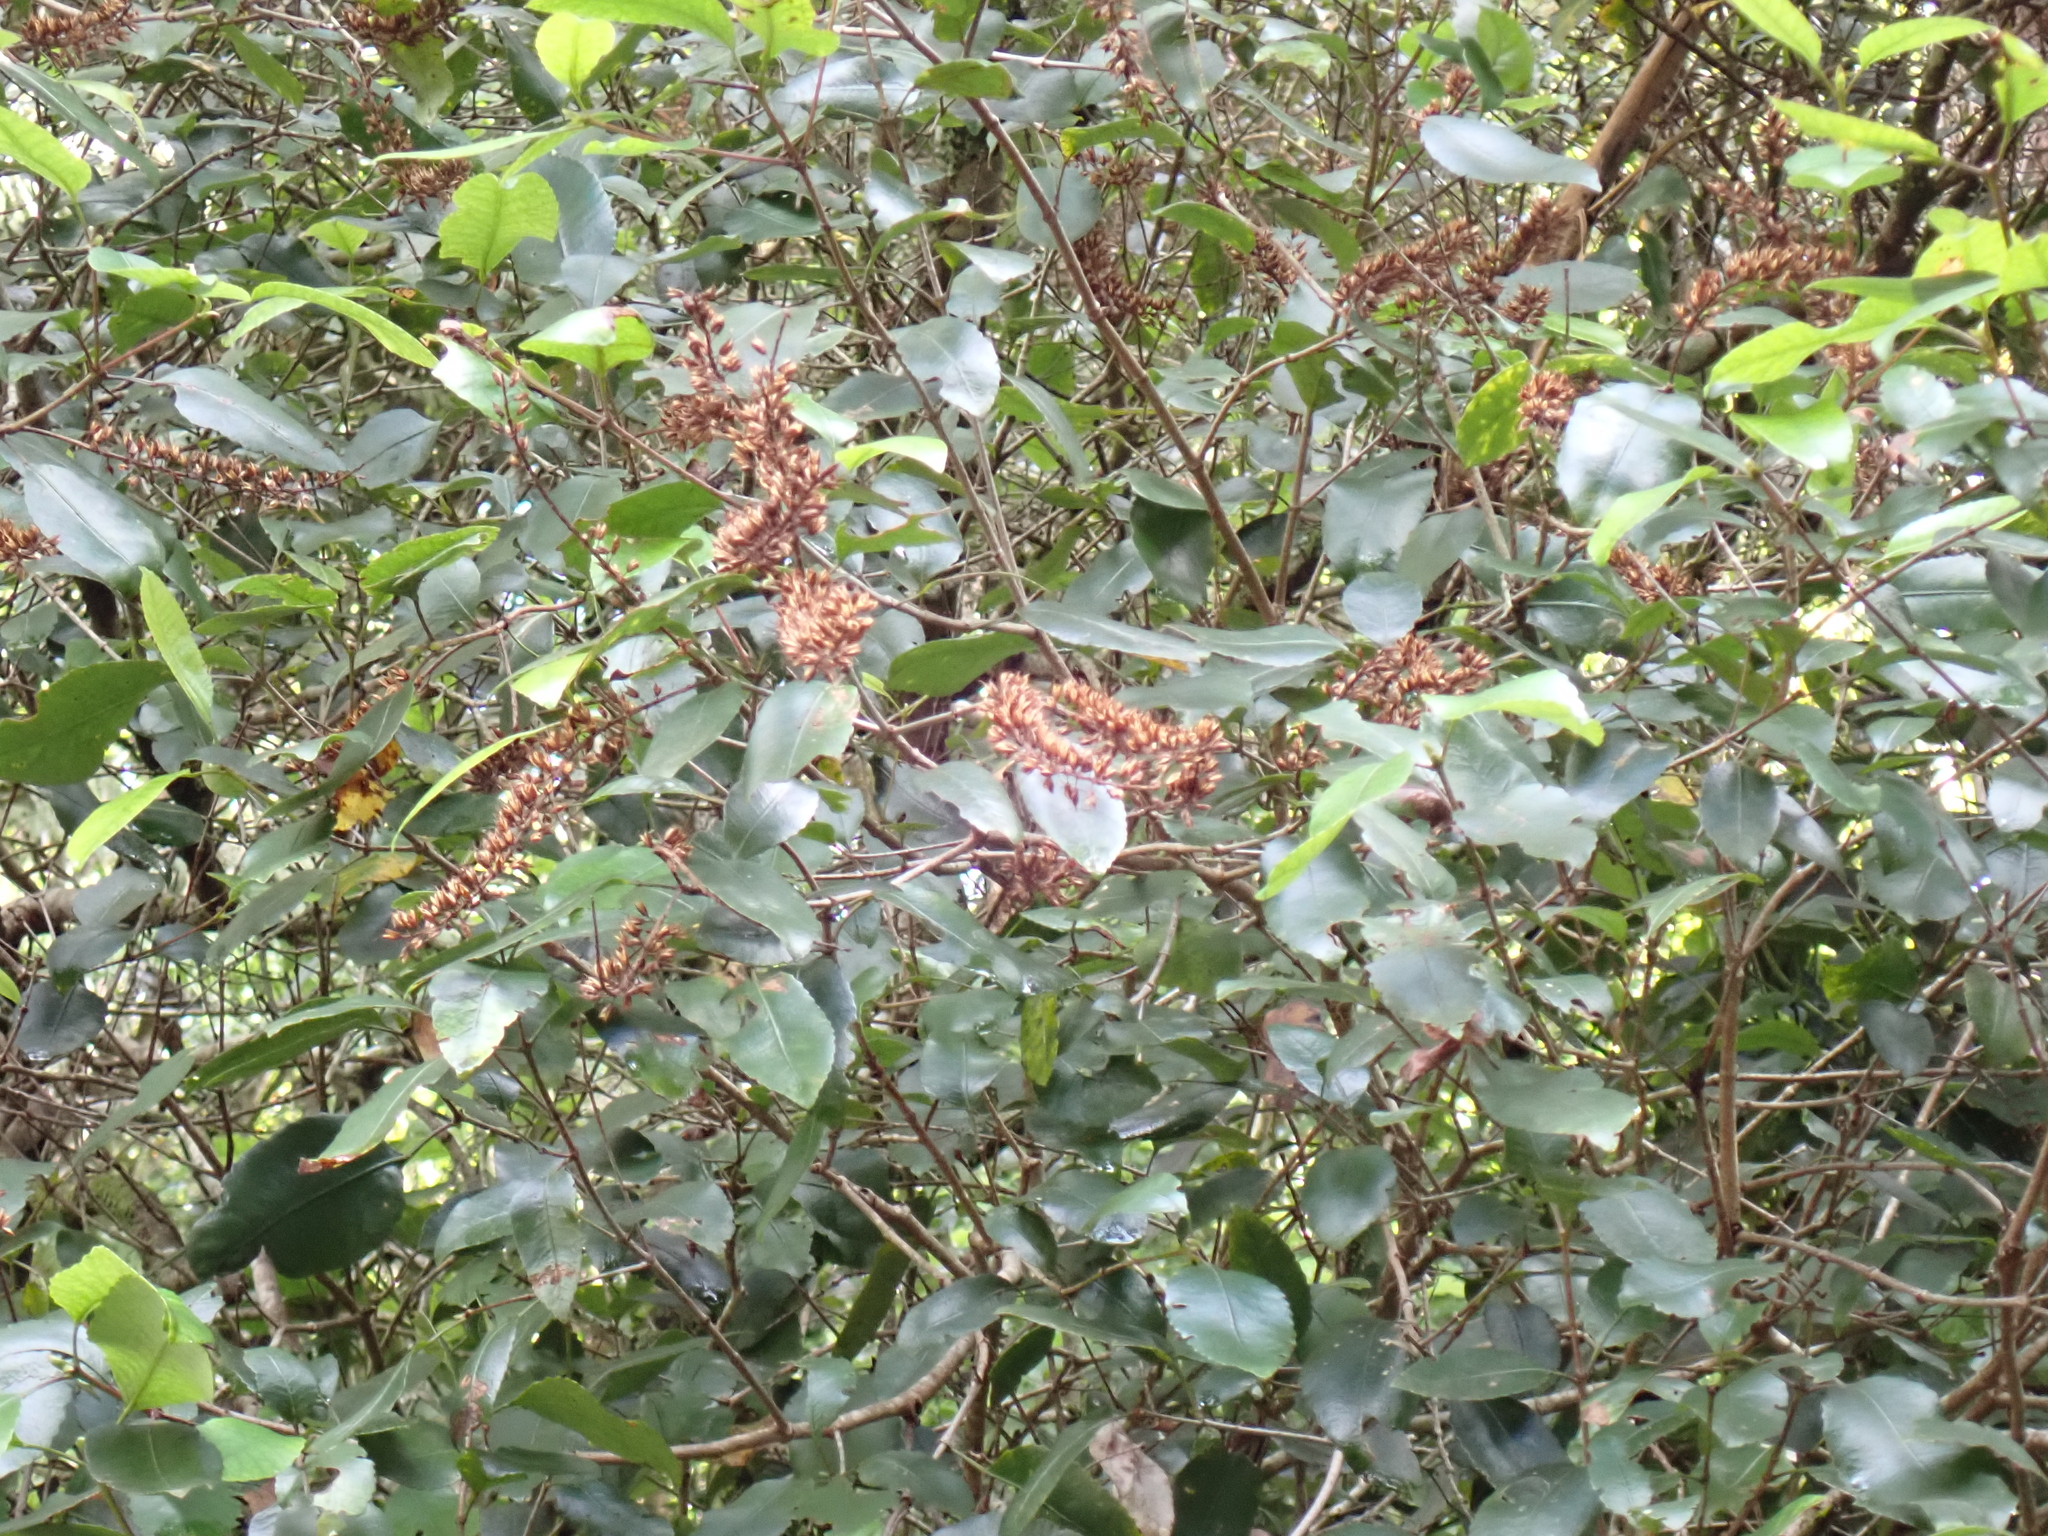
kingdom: Plantae
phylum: Tracheophyta
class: Magnoliopsida
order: Oxalidales
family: Cunoniaceae
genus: Pterophylla
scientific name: Pterophylla racemosa
